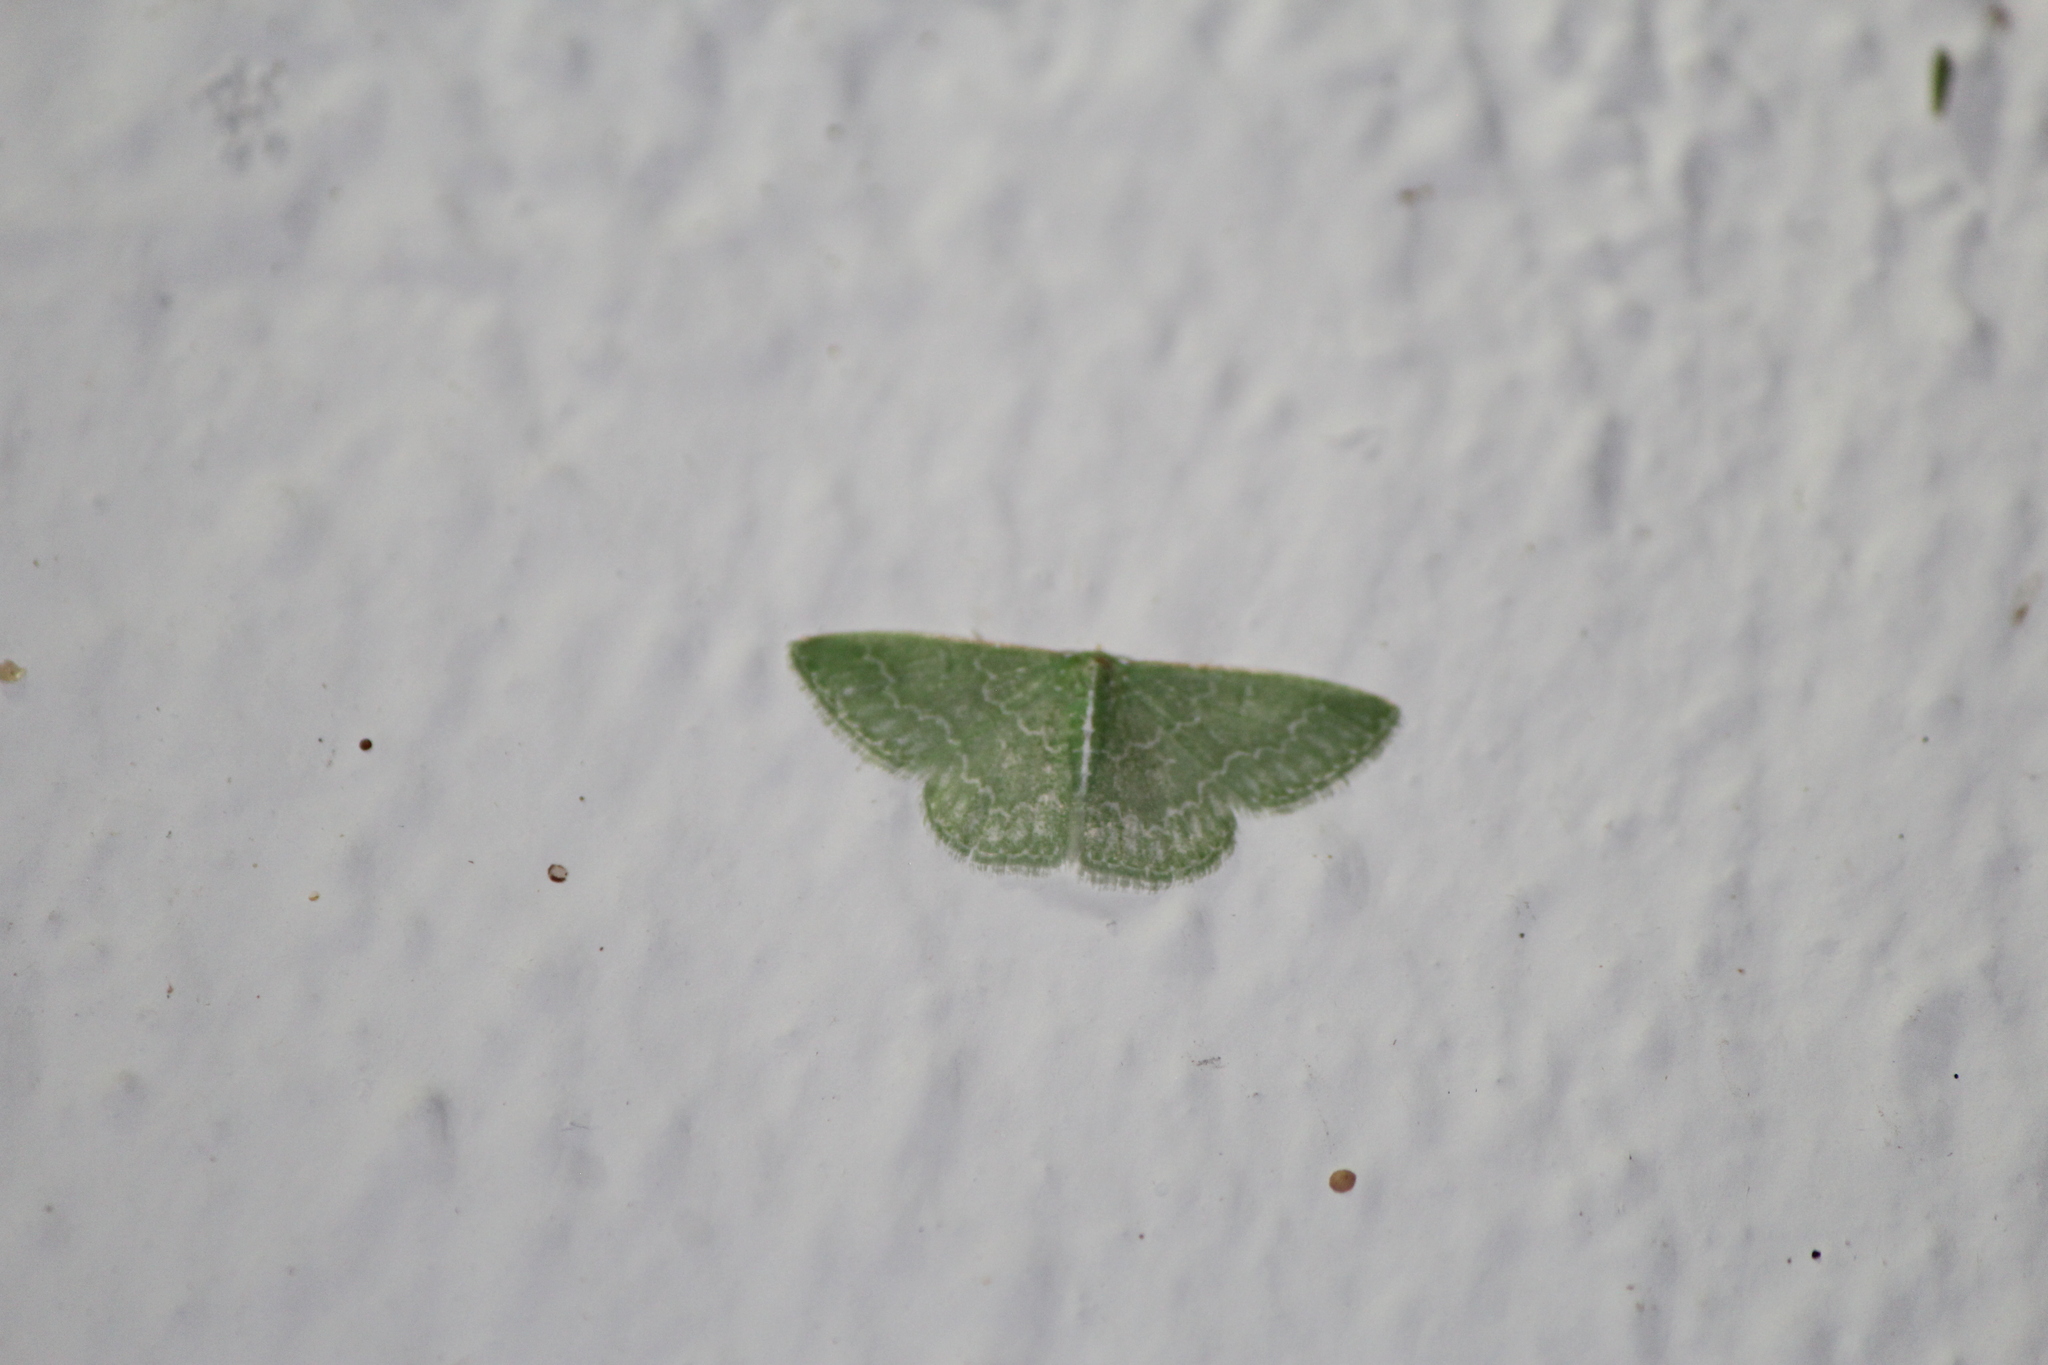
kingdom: Animalia
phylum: Arthropoda
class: Insecta
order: Lepidoptera
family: Geometridae
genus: Synchlora
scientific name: Synchlora frondaria
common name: Southern emerald
